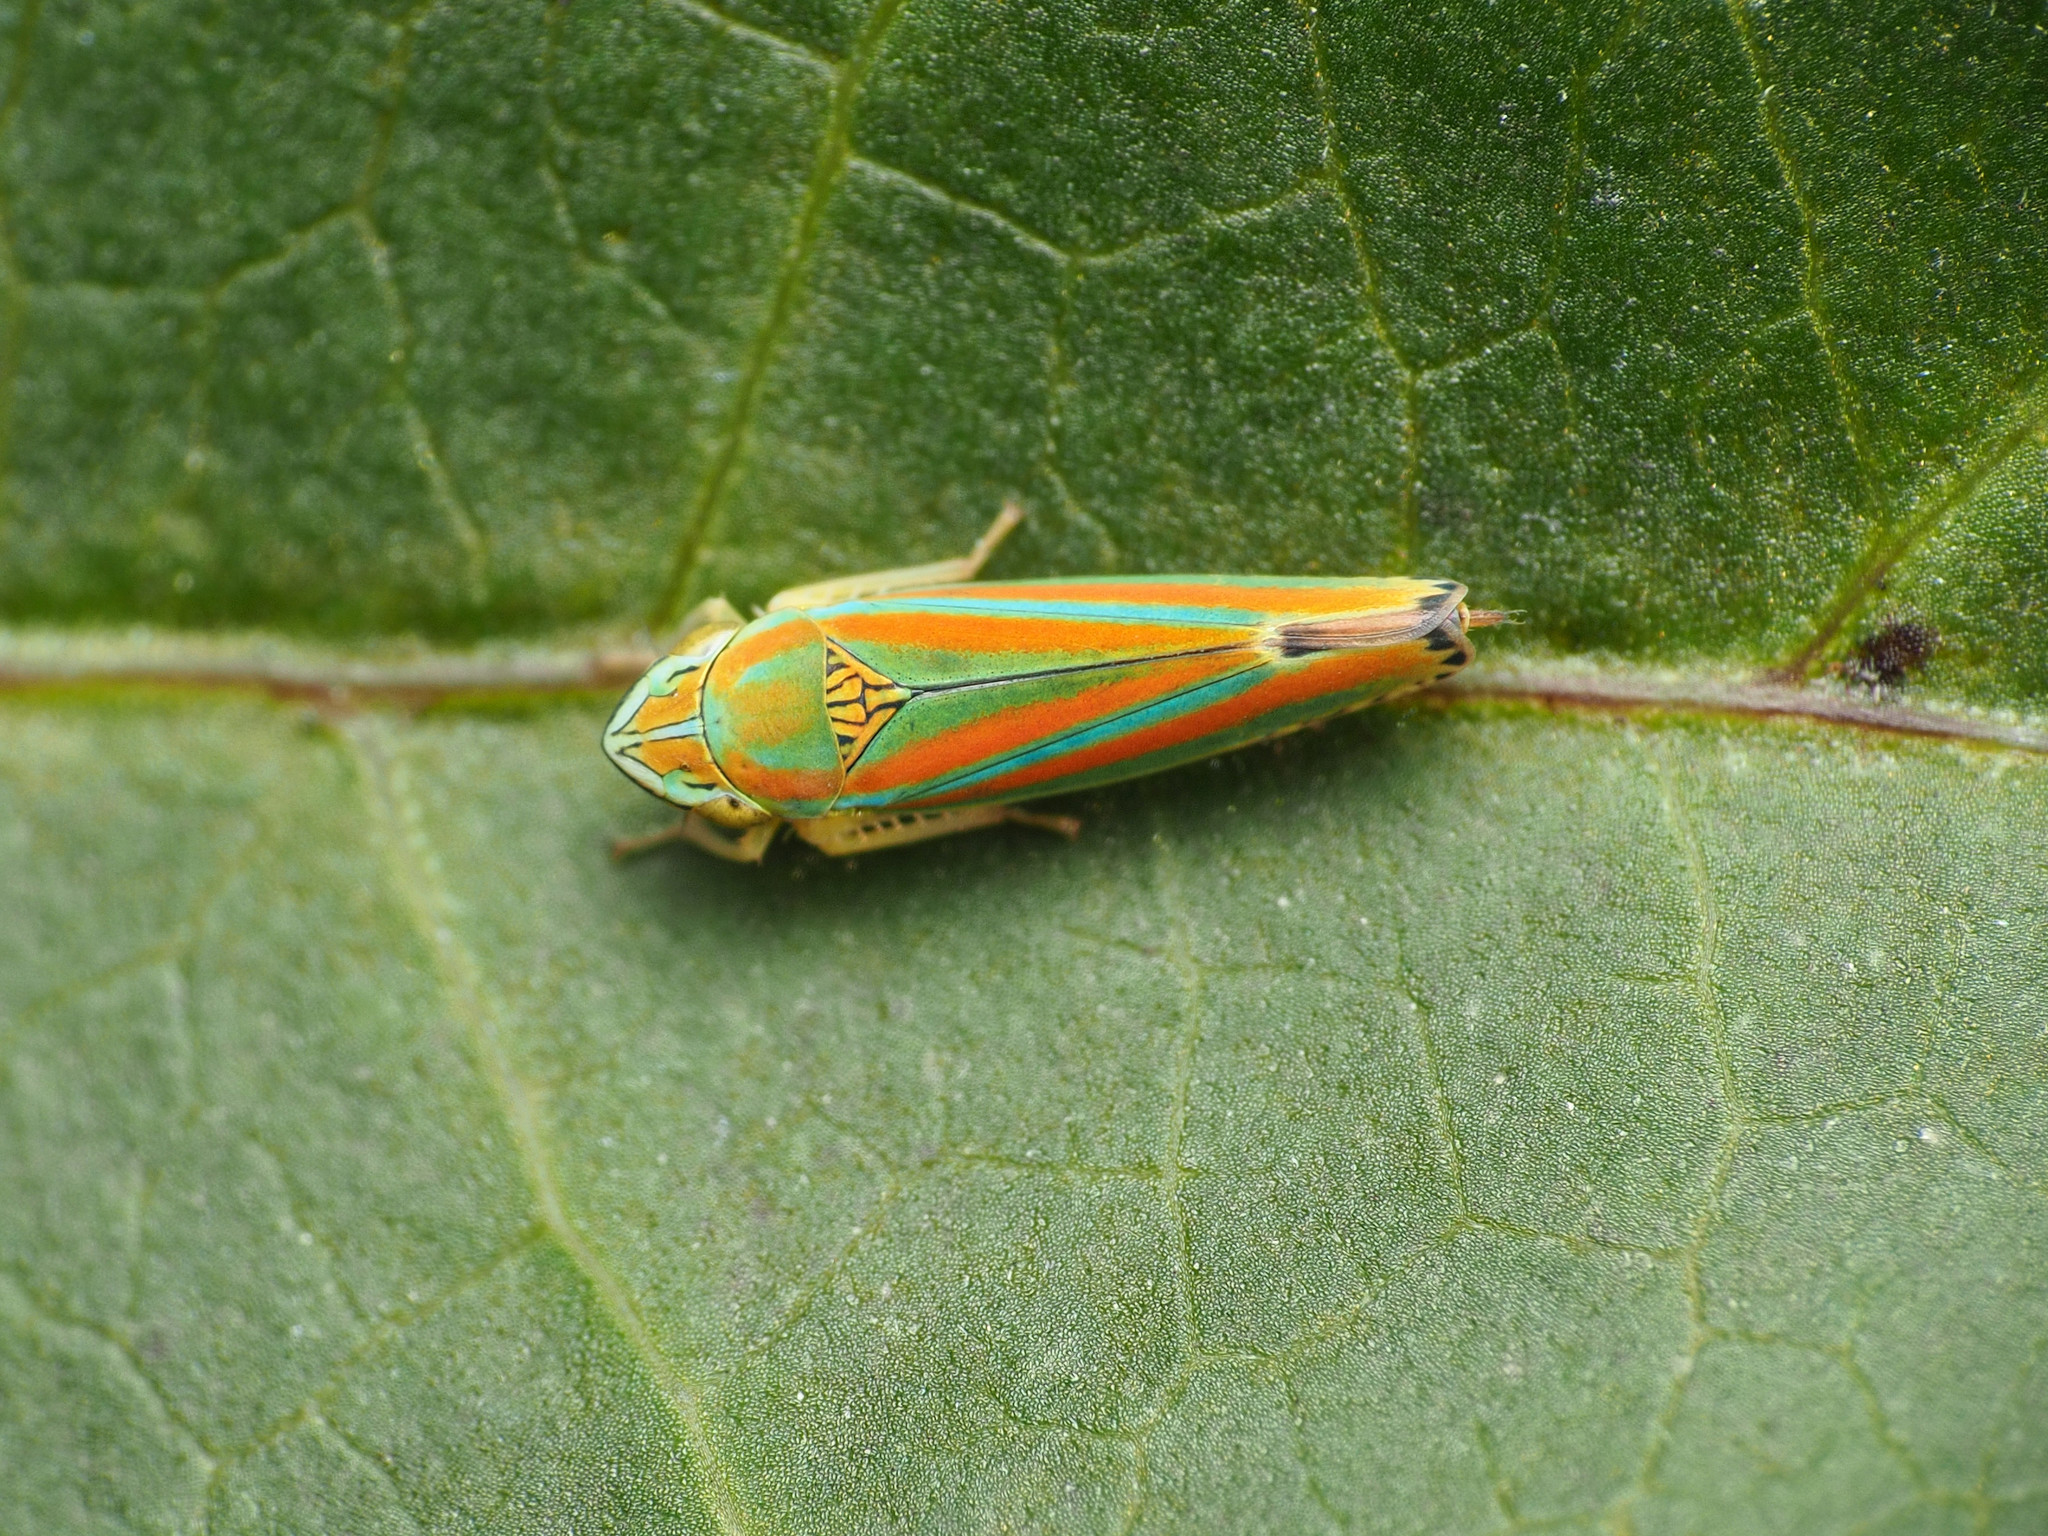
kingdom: Animalia
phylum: Arthropoda
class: Insecta
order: Hemiptera
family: Cicadellidae
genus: Graphocephala
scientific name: Graphocephala versuta
